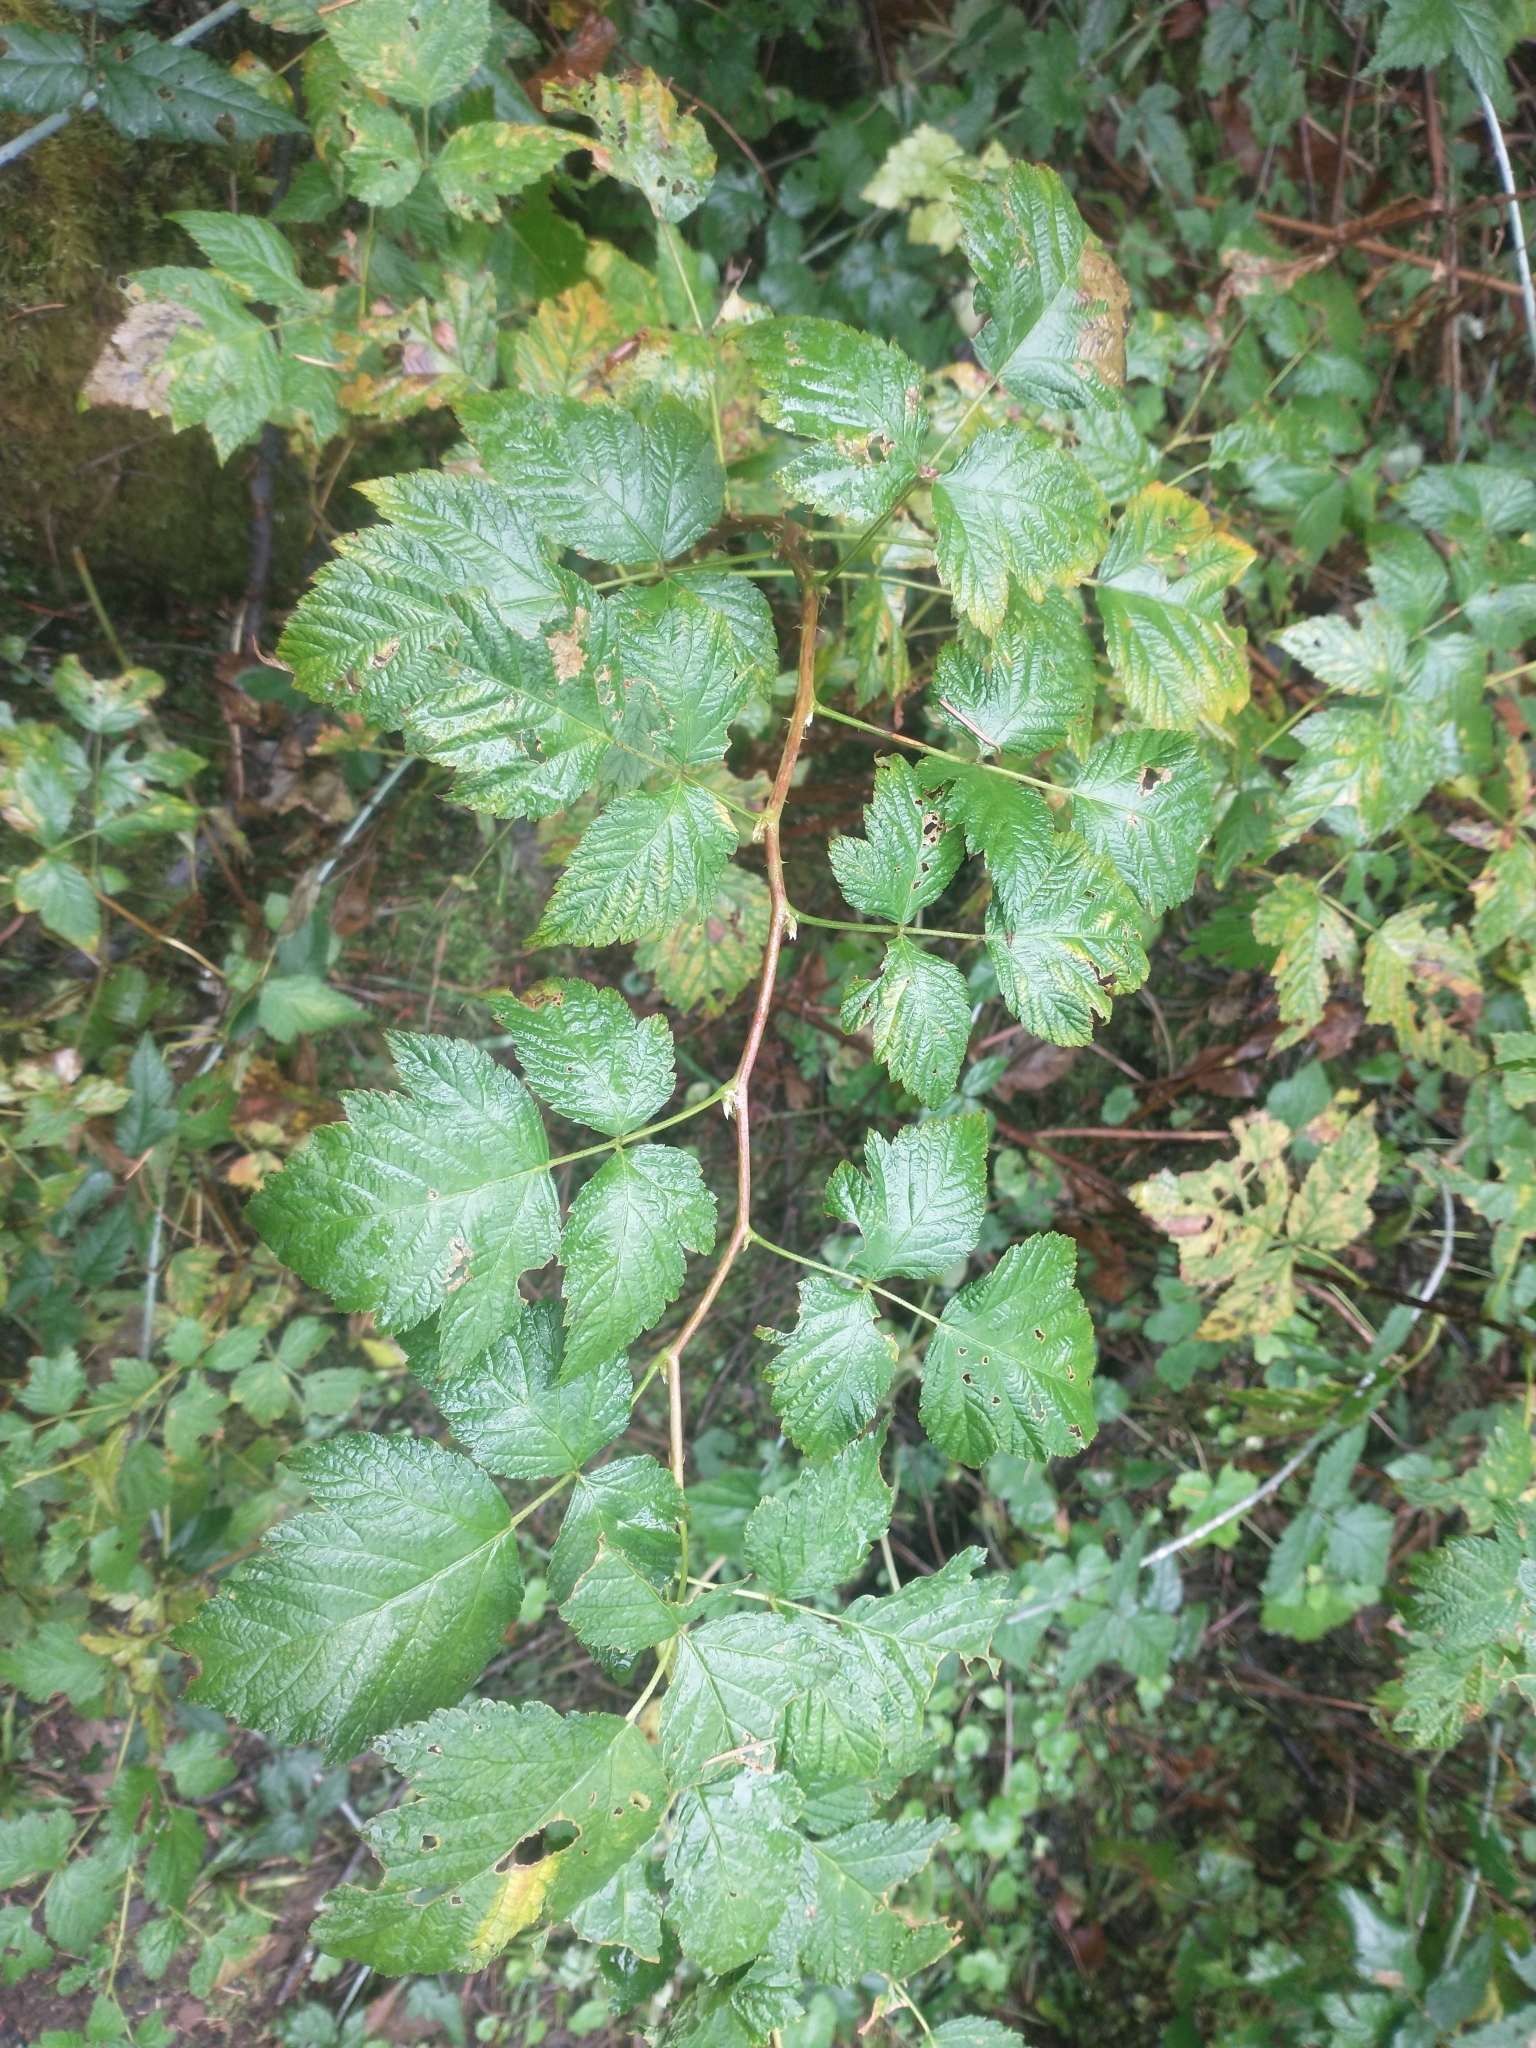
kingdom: Plantae
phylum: Tracheophyta
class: Magnoliopsida
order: Rosales
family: Rosaceae
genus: Rubus
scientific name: Rubus spectabilis
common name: Salmonberry
